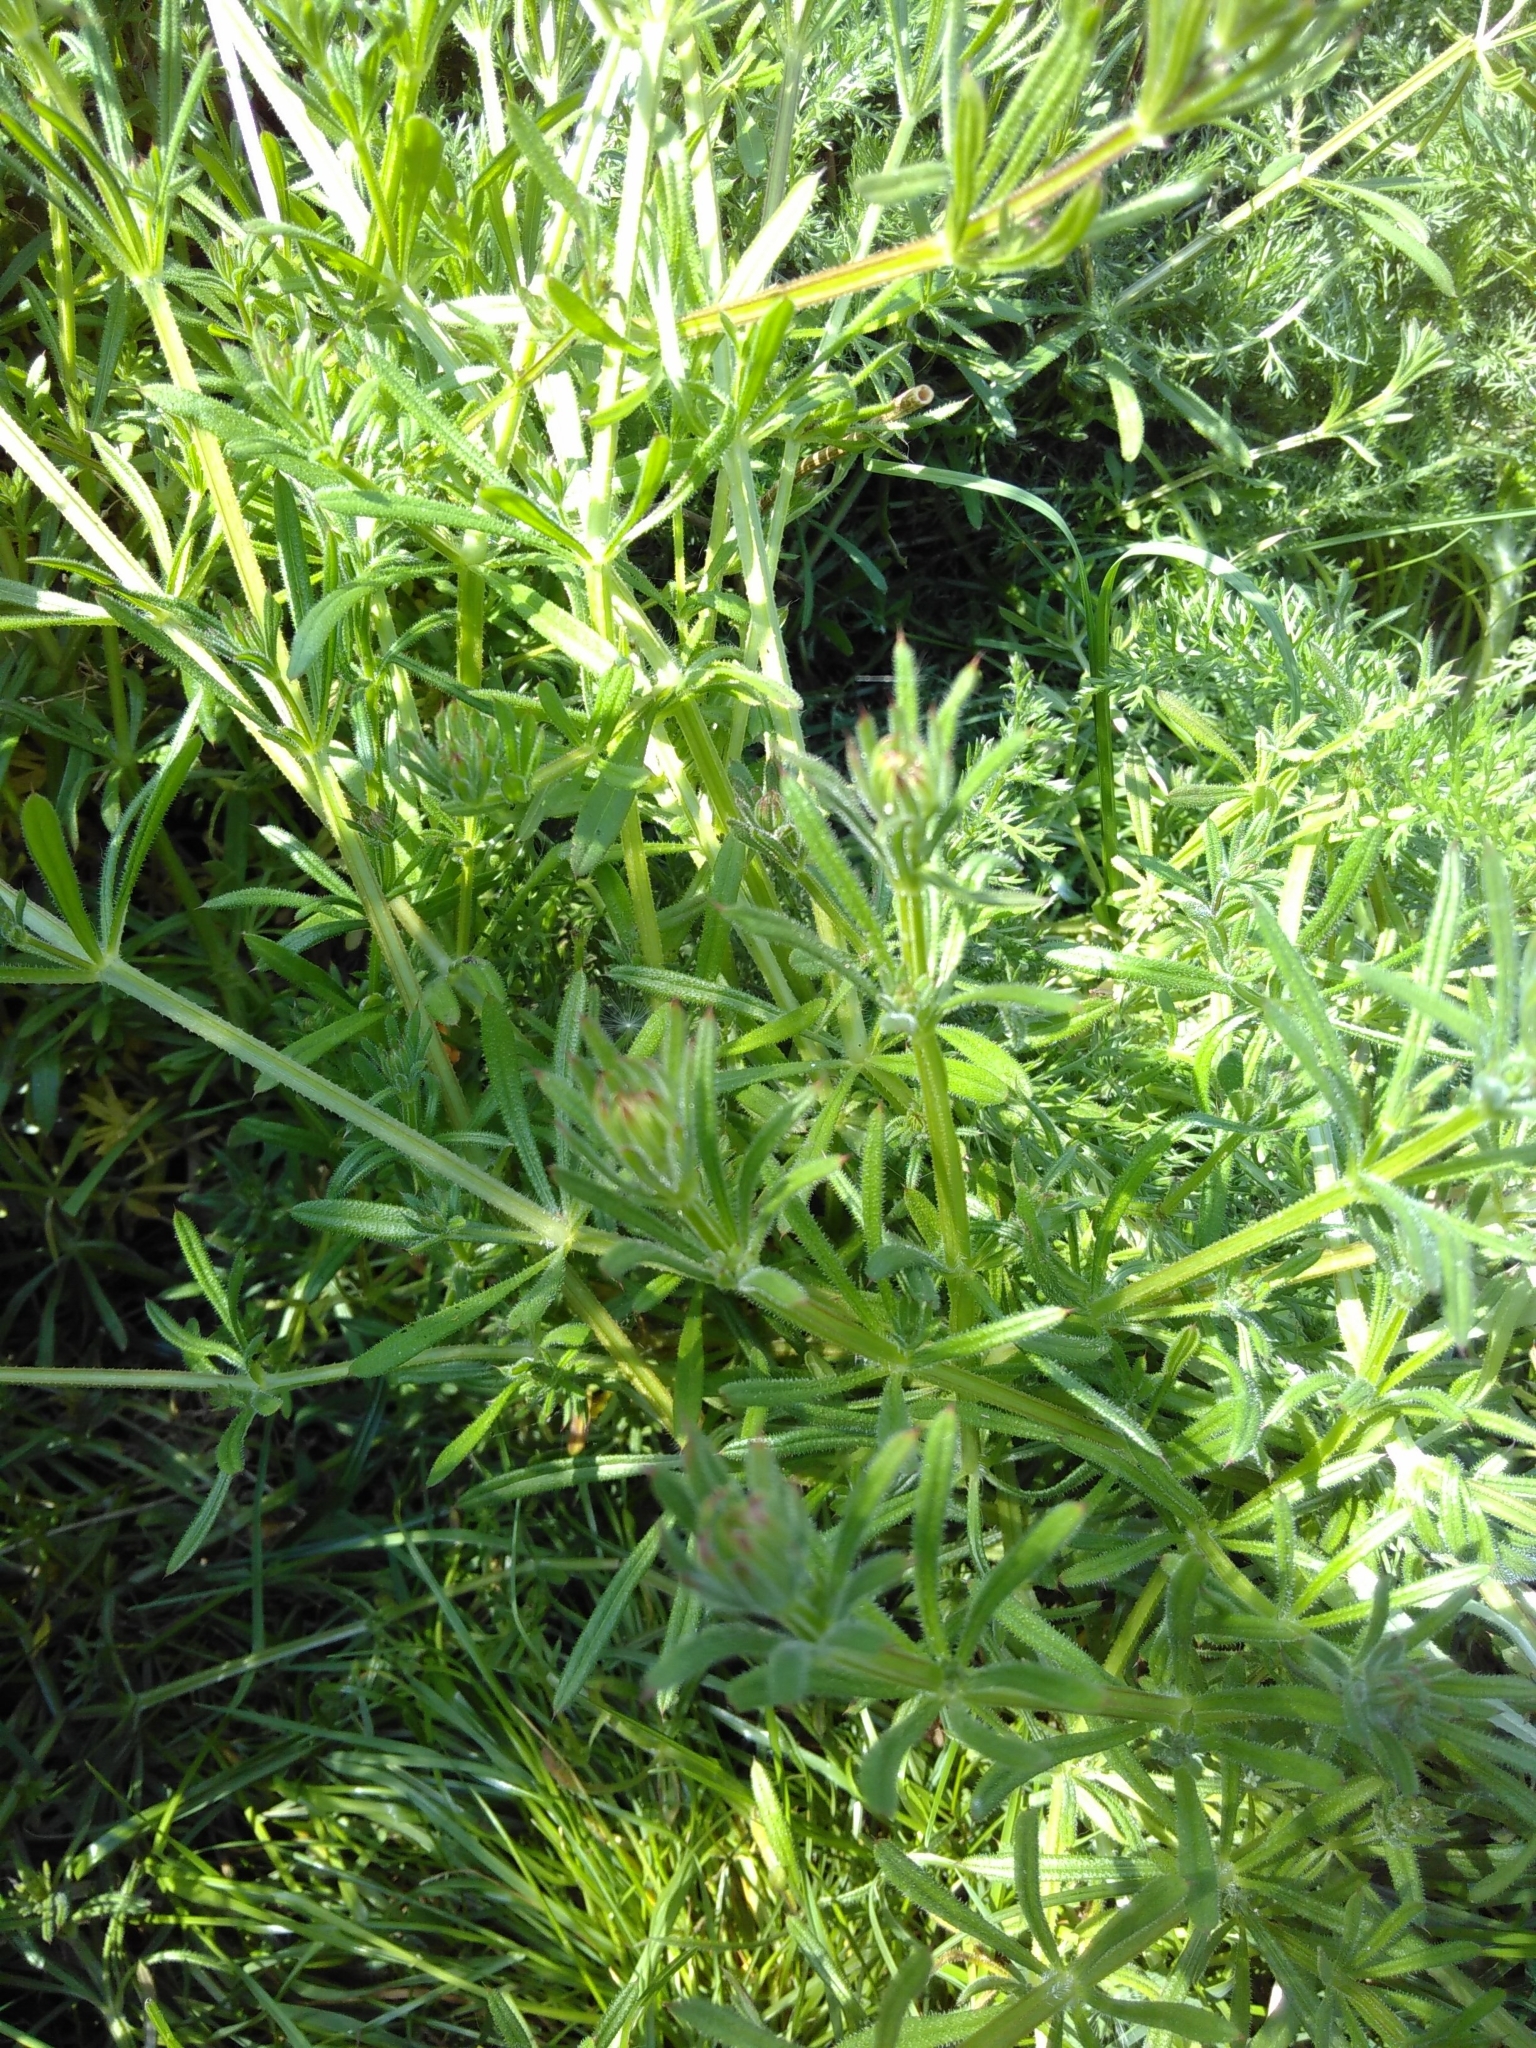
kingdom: Plantae
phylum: Tracheophyta
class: Magnoliopsida
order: Gentianales
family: Rubiaceae
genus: Galium
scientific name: Galium aparine
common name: Cleavers
